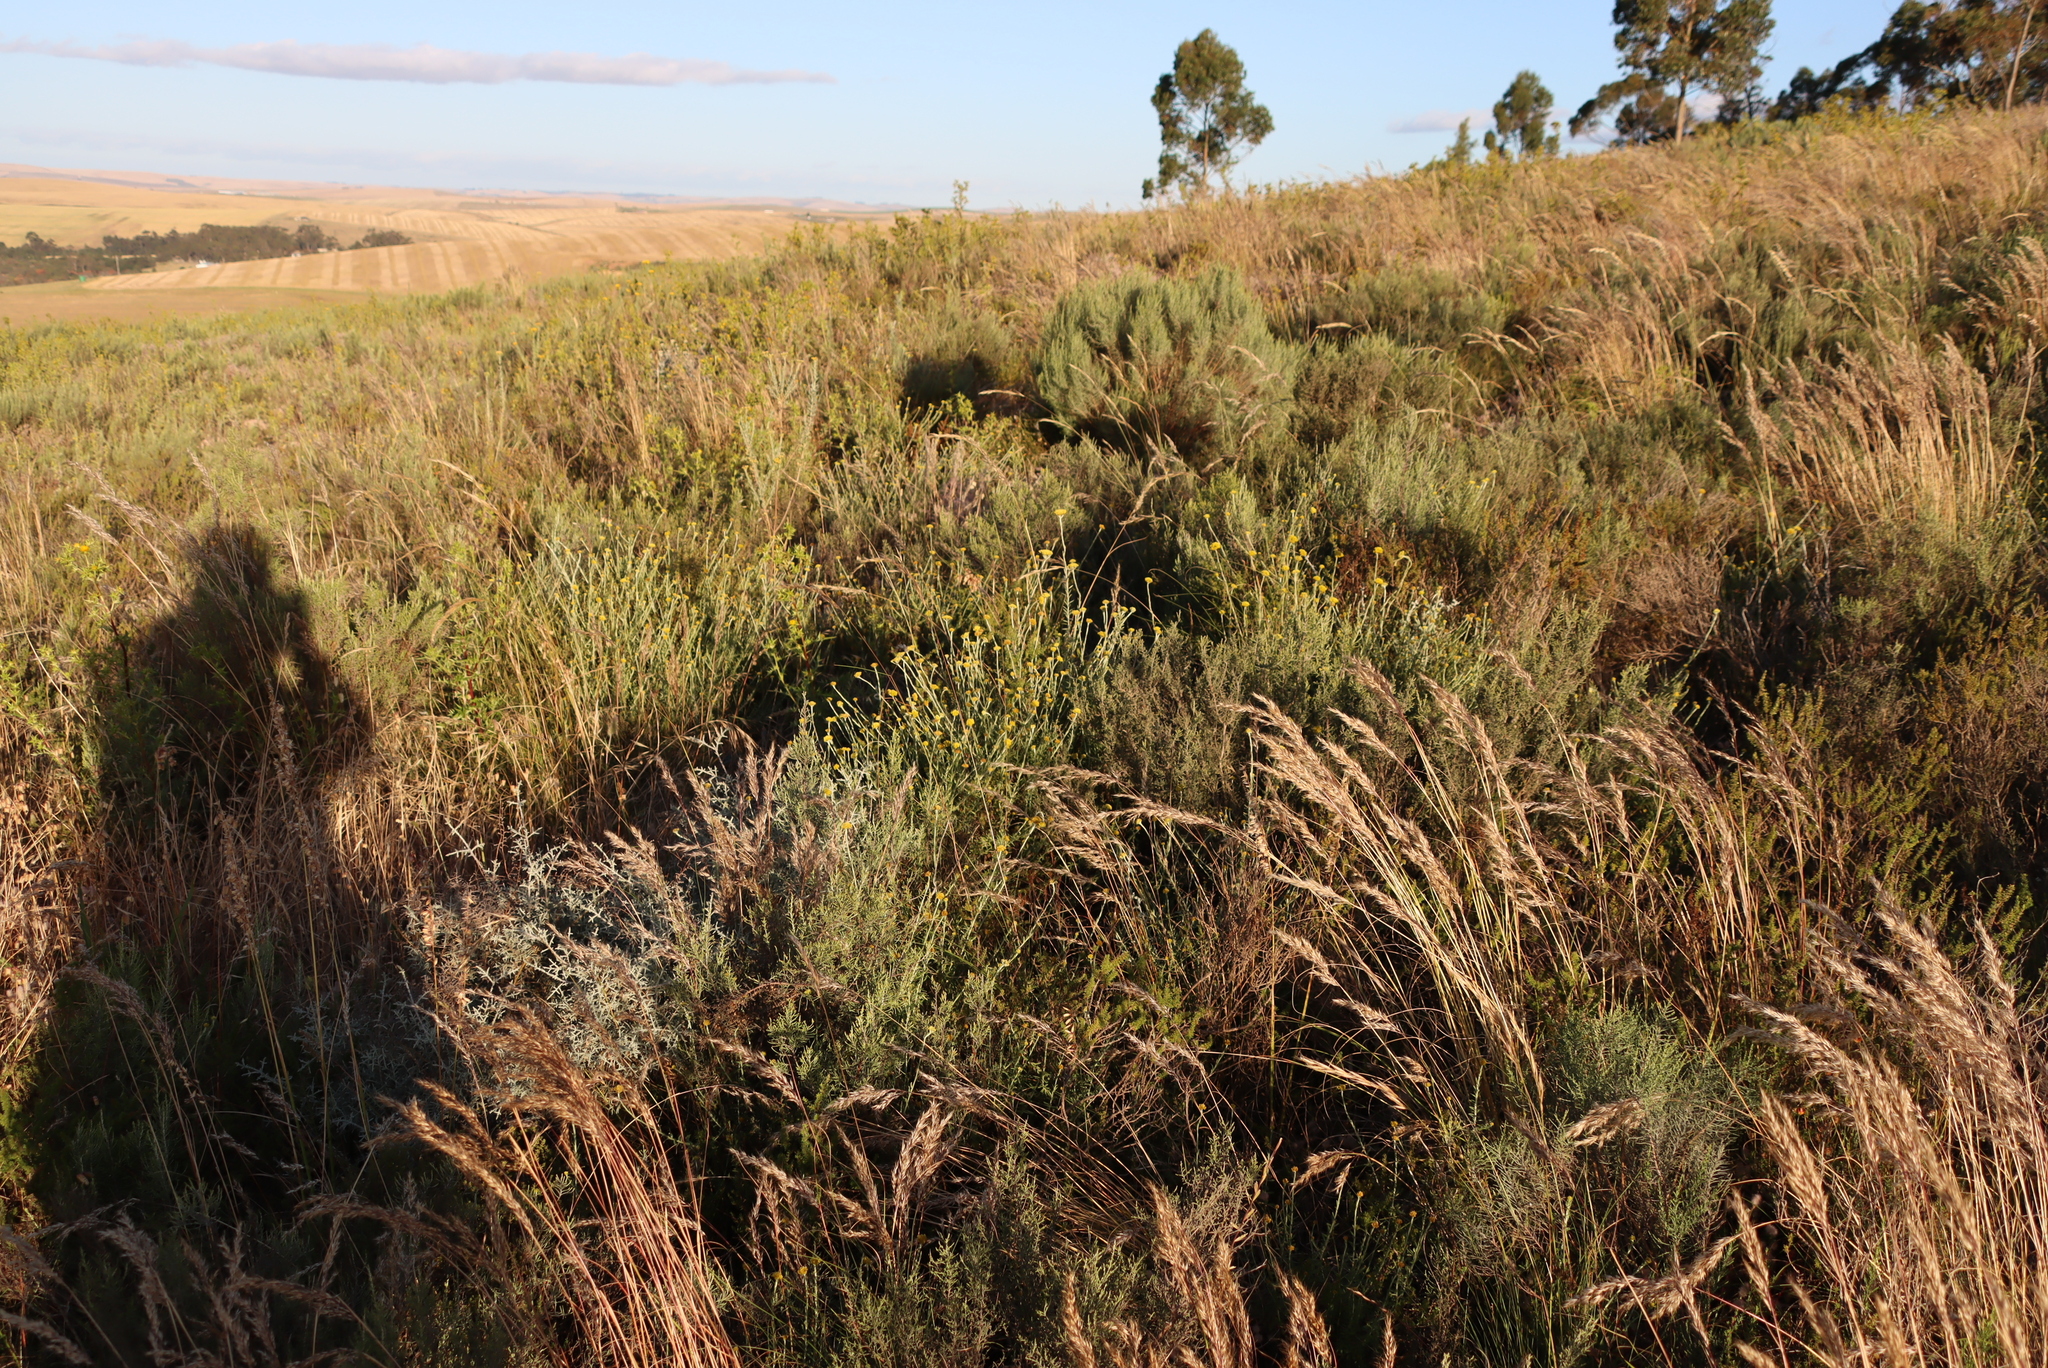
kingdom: Plantae
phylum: Tracheophyta
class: Magnoliopsida
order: Asterales
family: Asteraceae
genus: Helichrysum
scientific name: Helichrysum cymosum
